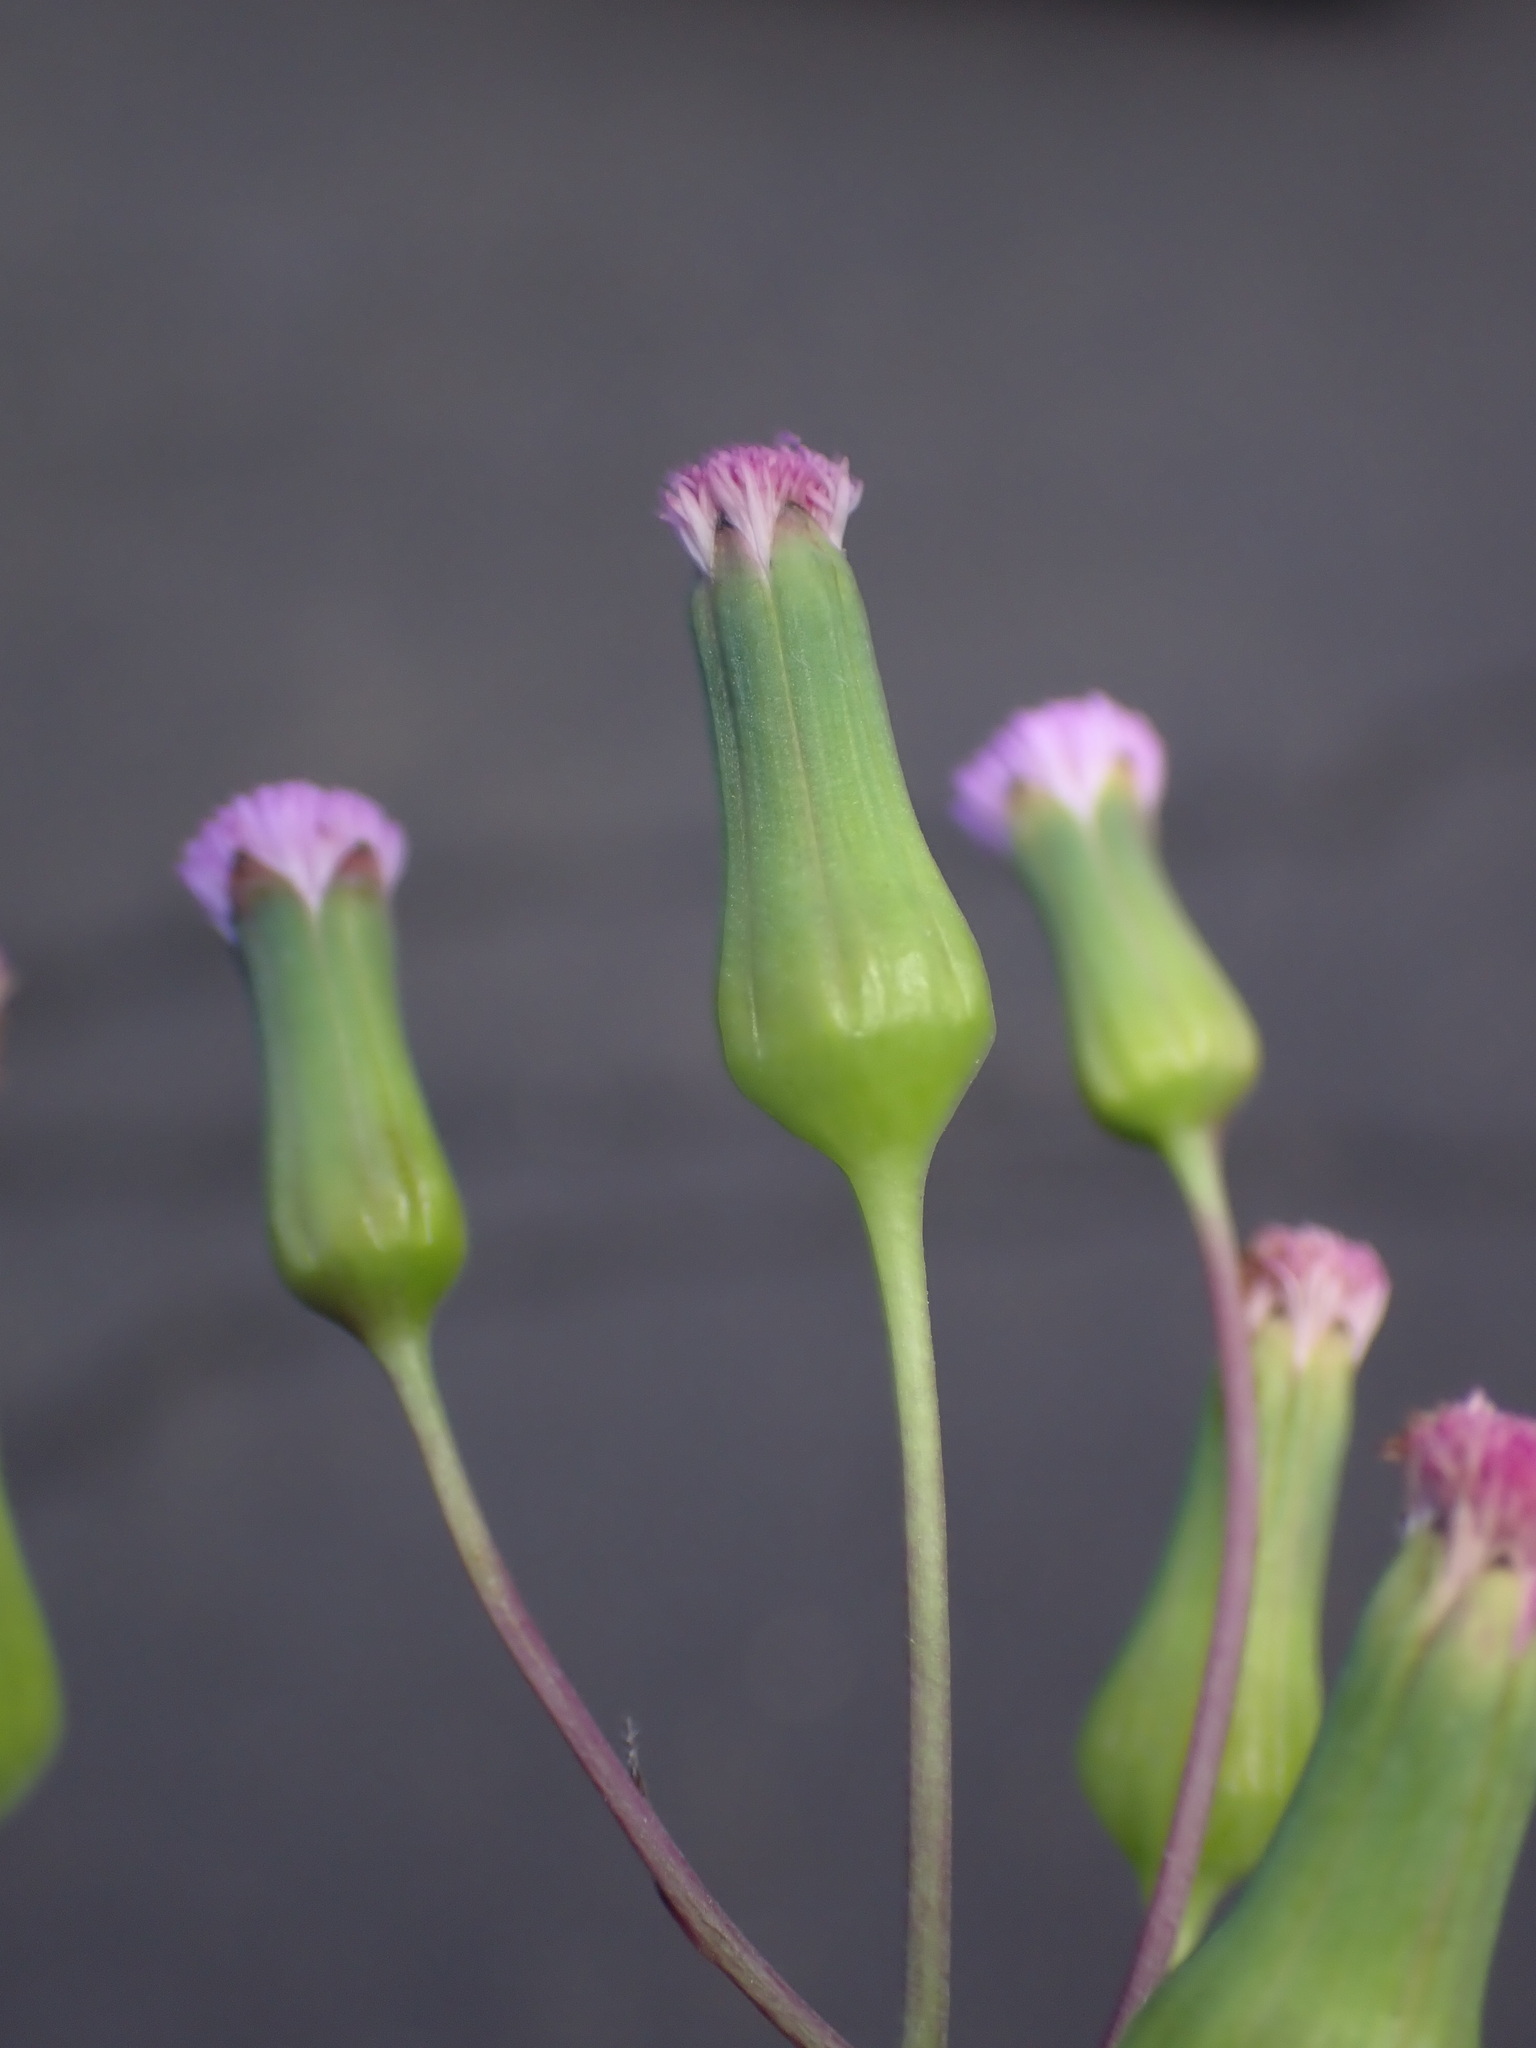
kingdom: Plantae
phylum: Tracheophyta
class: Magnoliopsida
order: Asterales
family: Asteraceae
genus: Emilia
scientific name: Emilia sonchifolia
